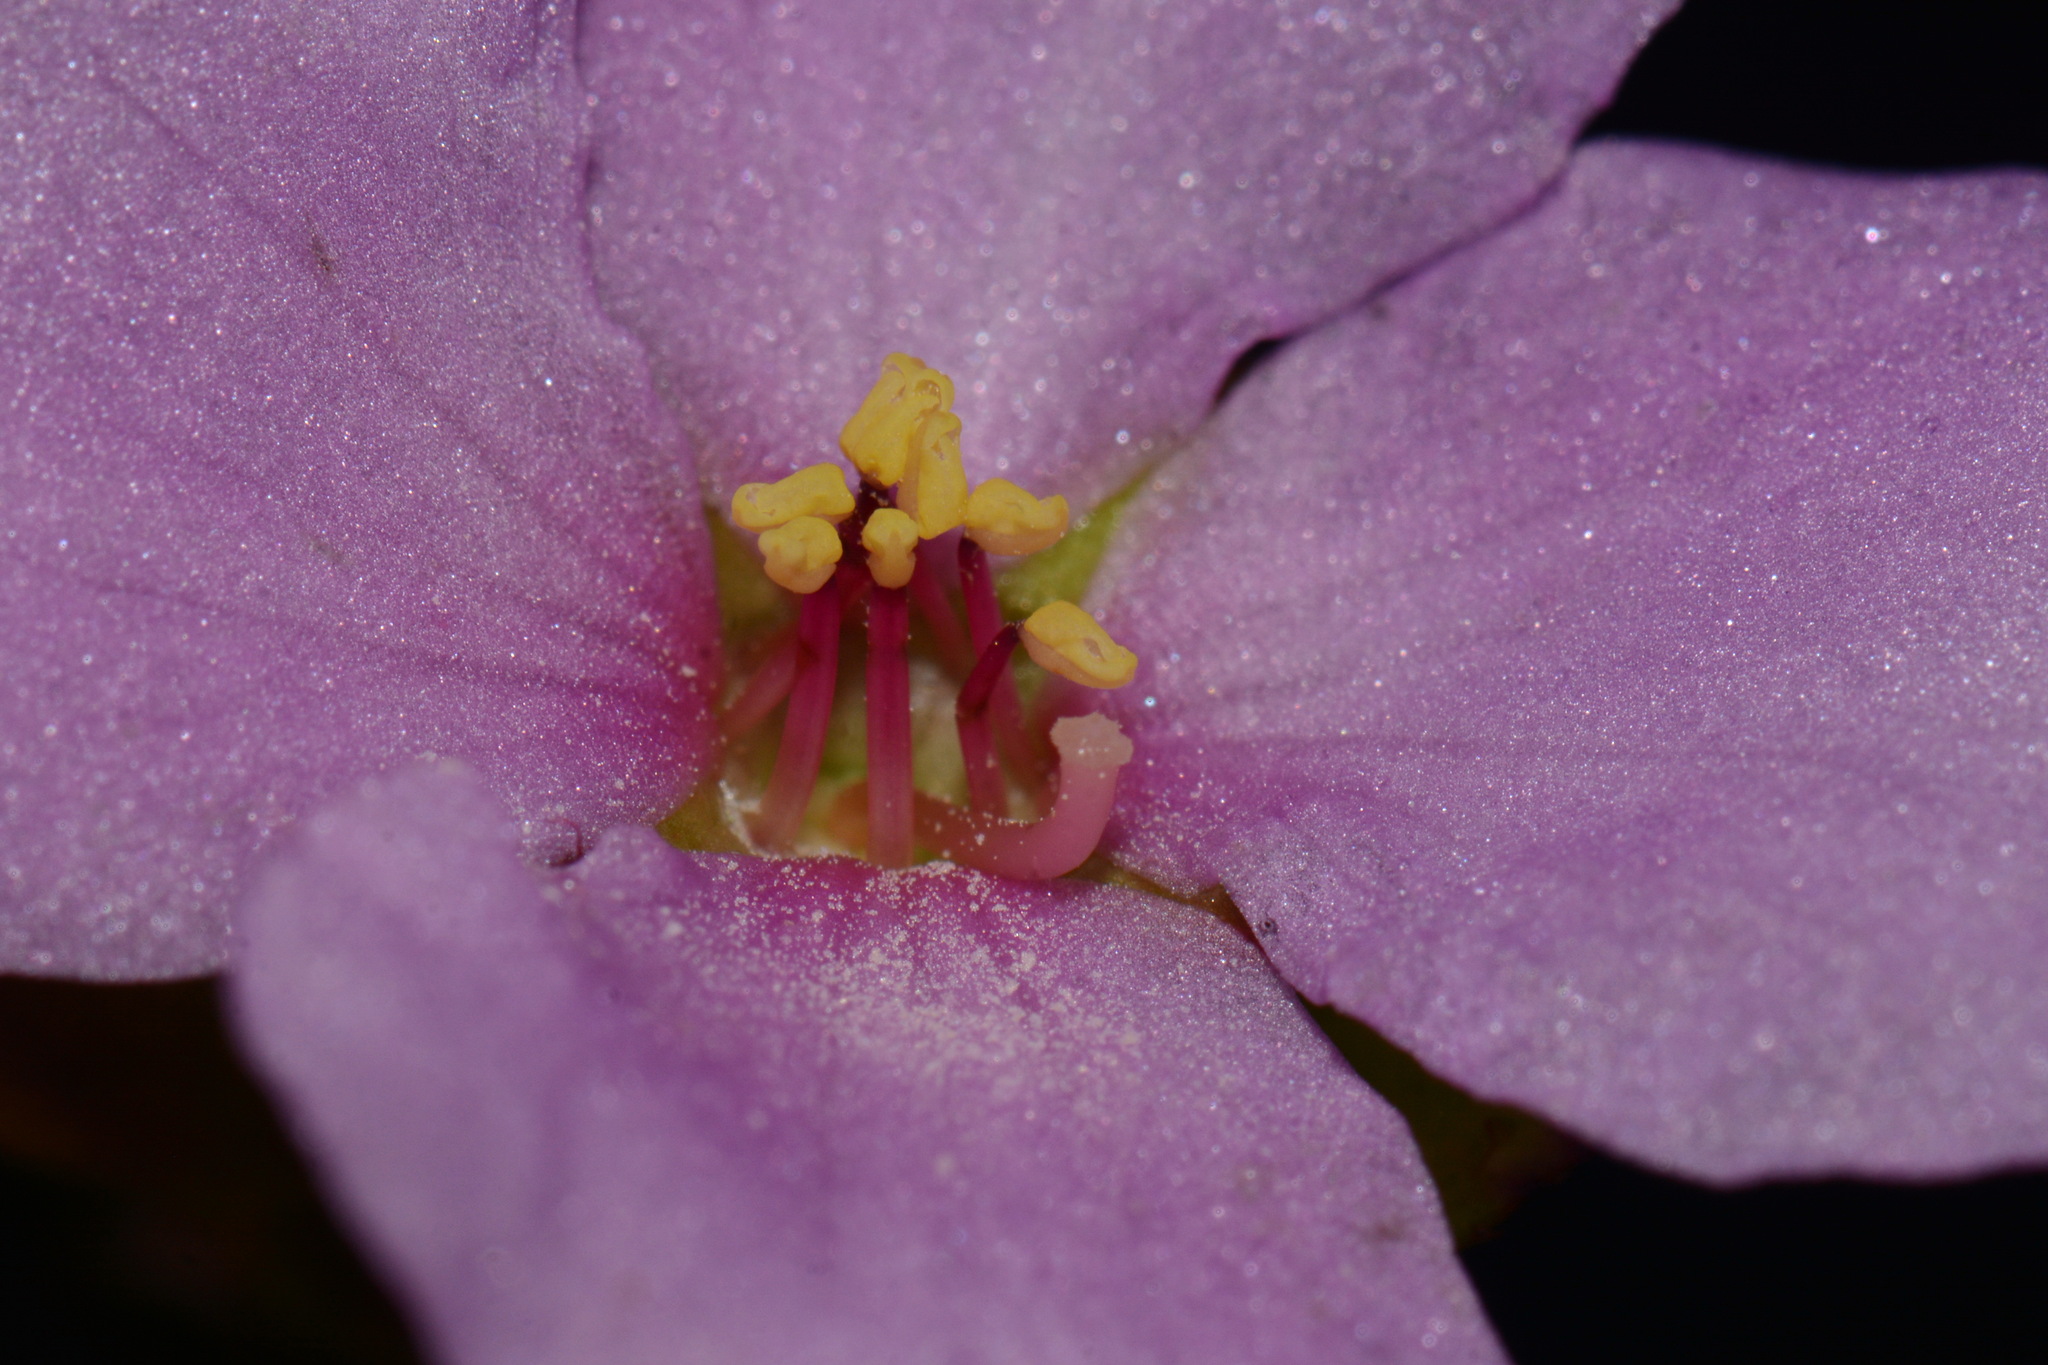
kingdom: Plantae
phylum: Tracheophyta
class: Magnoliopsida
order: Myrtales
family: Melastomataceae
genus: Rhexia
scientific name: Rhexia petiolata
